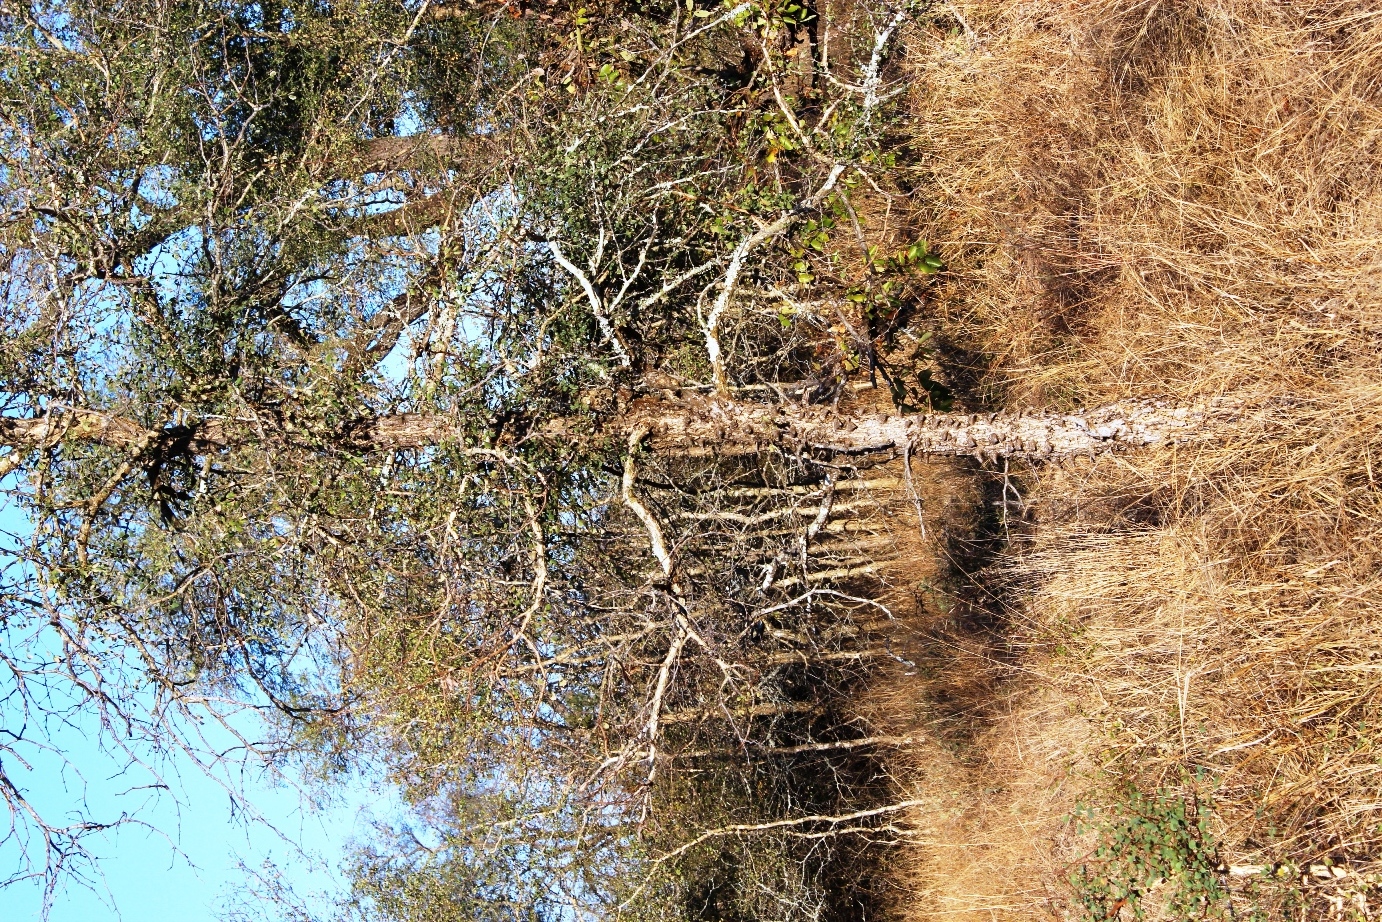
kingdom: Plantae
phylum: Tracheophyta
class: Magnoliopsida
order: Fabales
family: Fabaceae
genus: Senegalia
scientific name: Senegalia nigrescens
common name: Knobthorn
